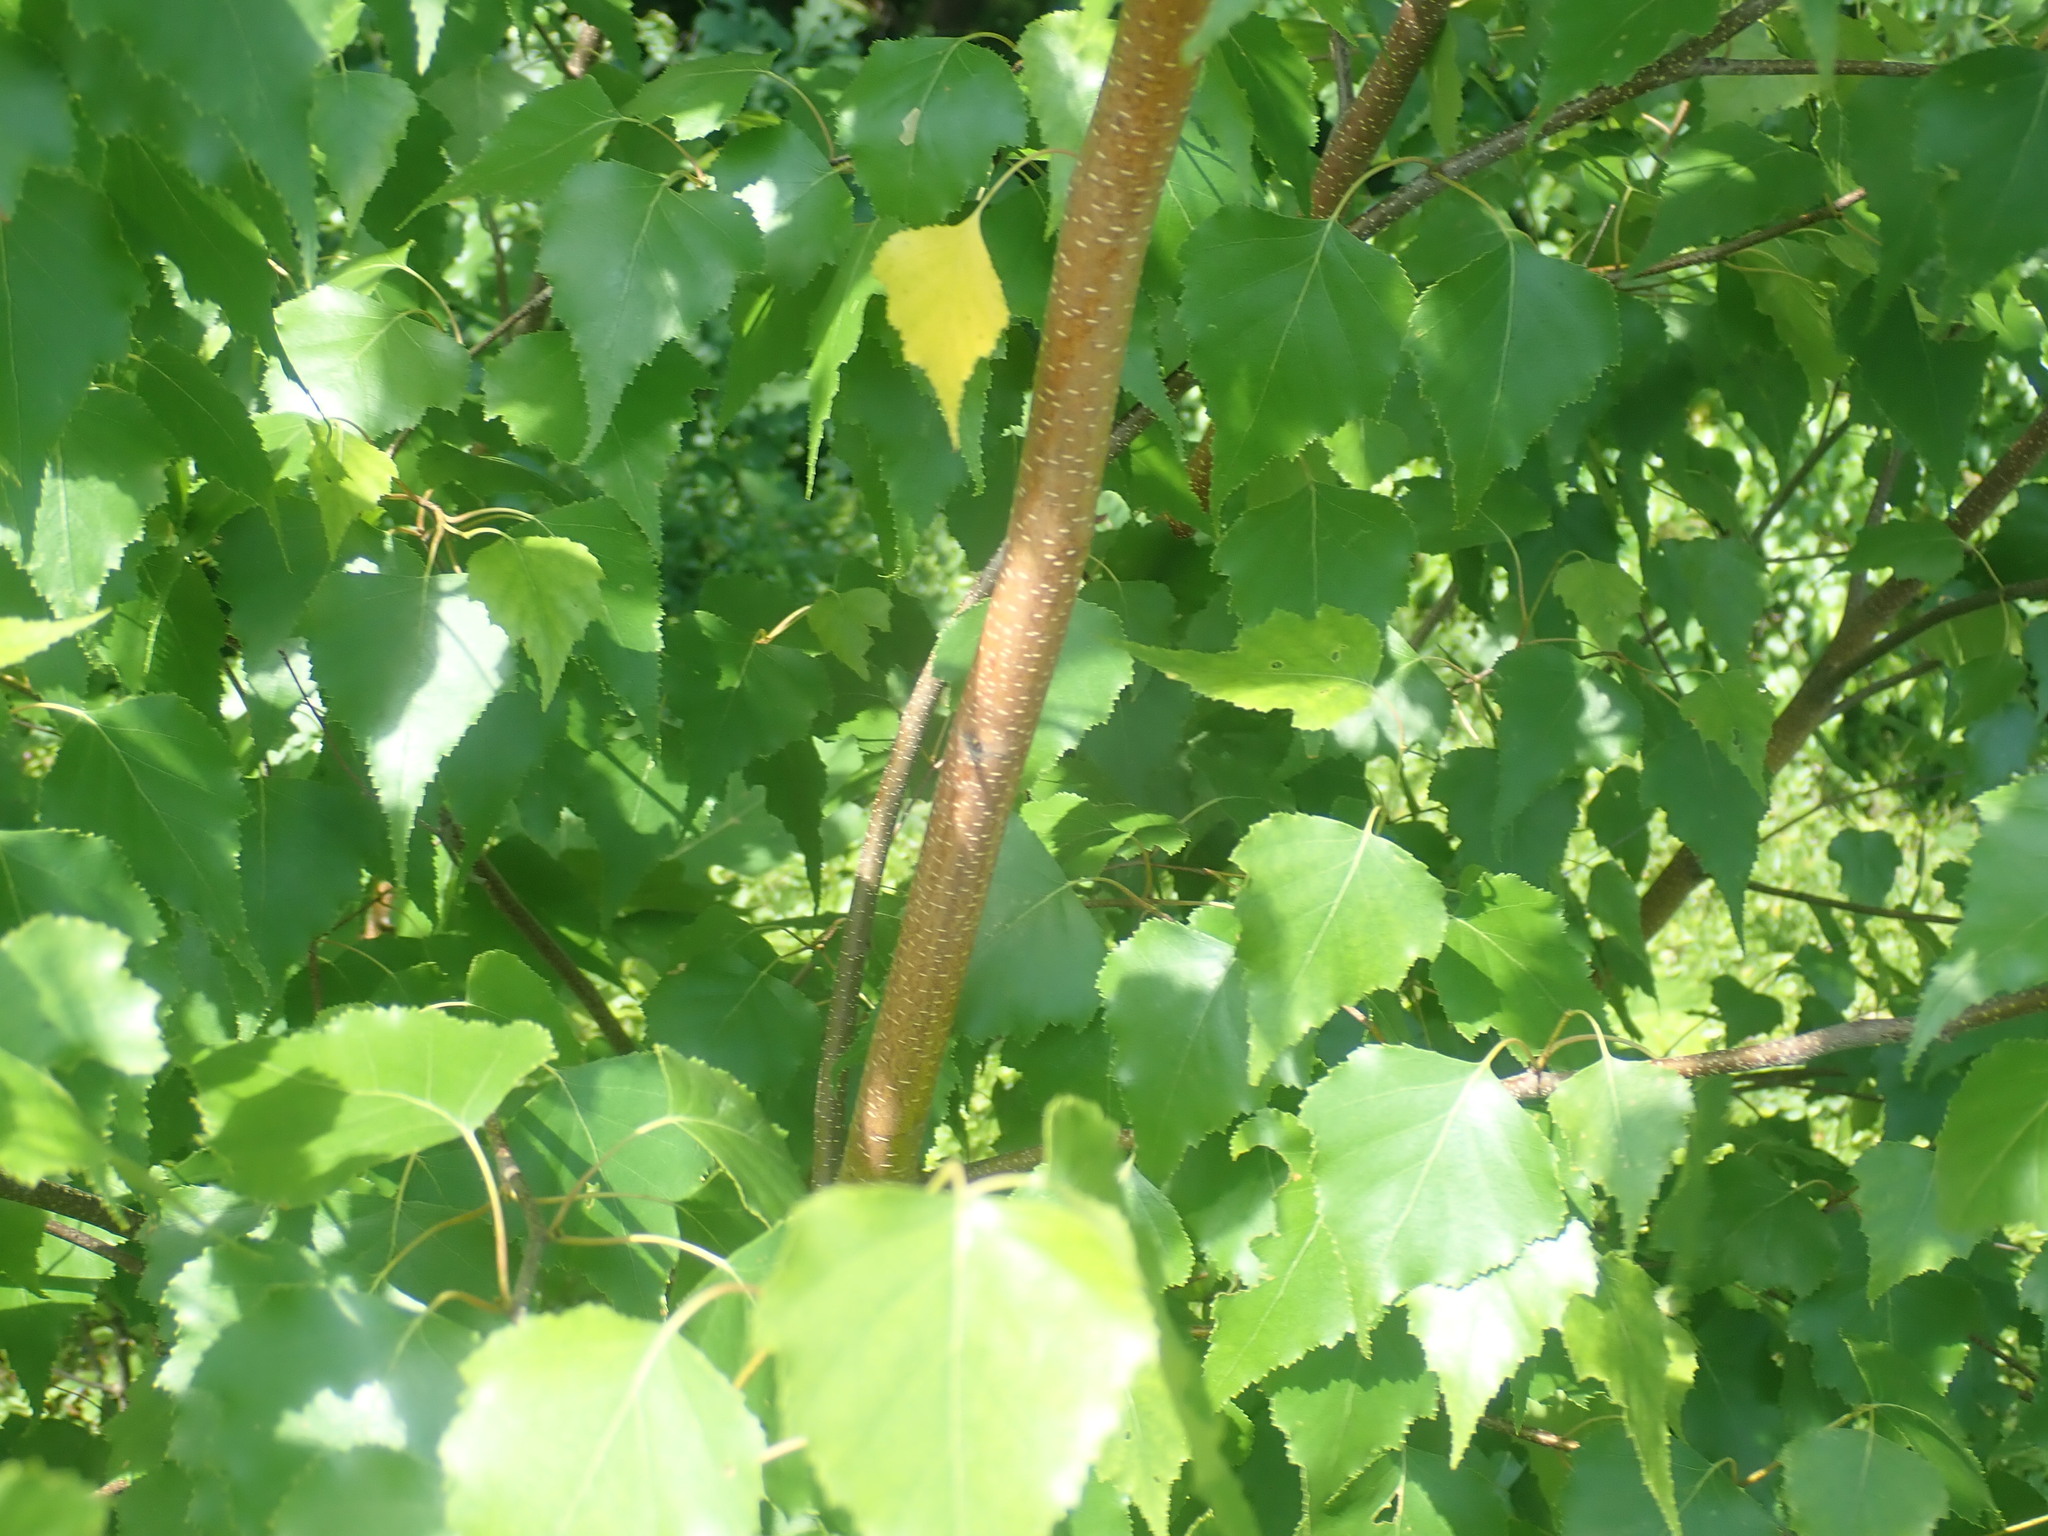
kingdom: Plantae
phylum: Tracheophyta
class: Magnoliopsida
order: Fagales
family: Betulaceae
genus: Betula
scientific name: Betula populifolia
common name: Fire birch
